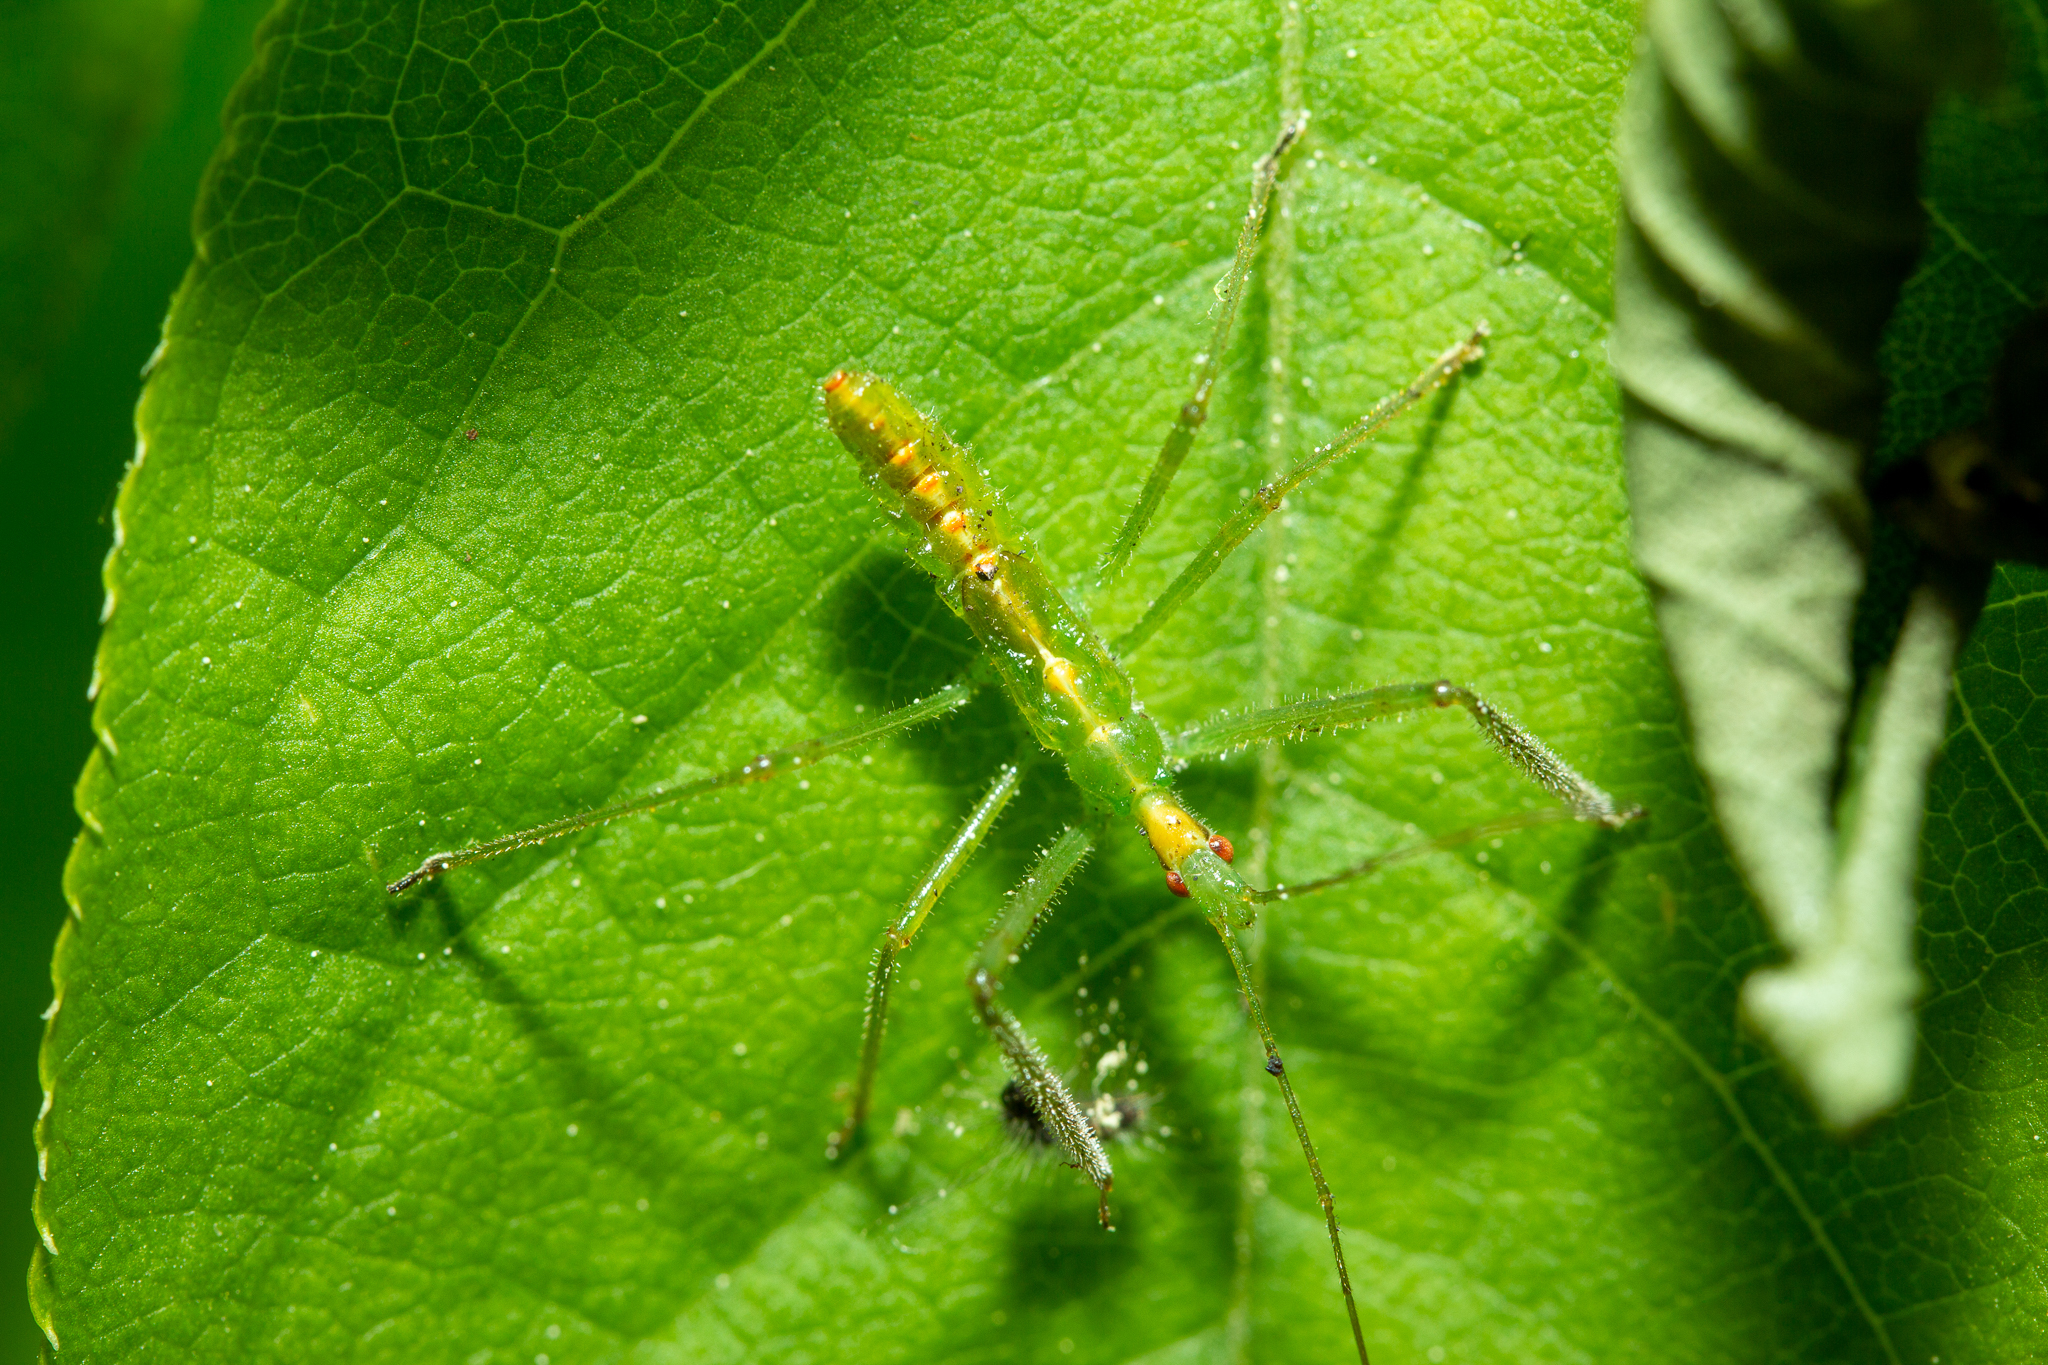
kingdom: Animalia
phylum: Arthropoda
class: Insecta
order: Hemiptera
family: Reduviidae
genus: Zelus
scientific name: Zelus luridus
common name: Pale green assassin bug
